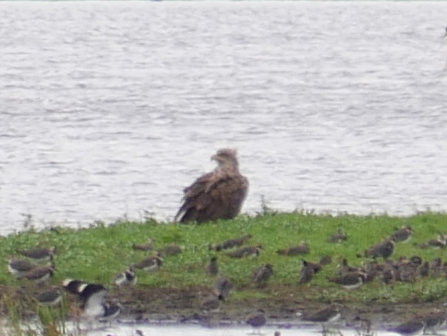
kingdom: Animalia
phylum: Chordata
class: Aves
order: Accipitriformes
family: Accipitridae
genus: Haliaeetus
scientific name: Haliaeetus albicilla
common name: White-tailed eagle
